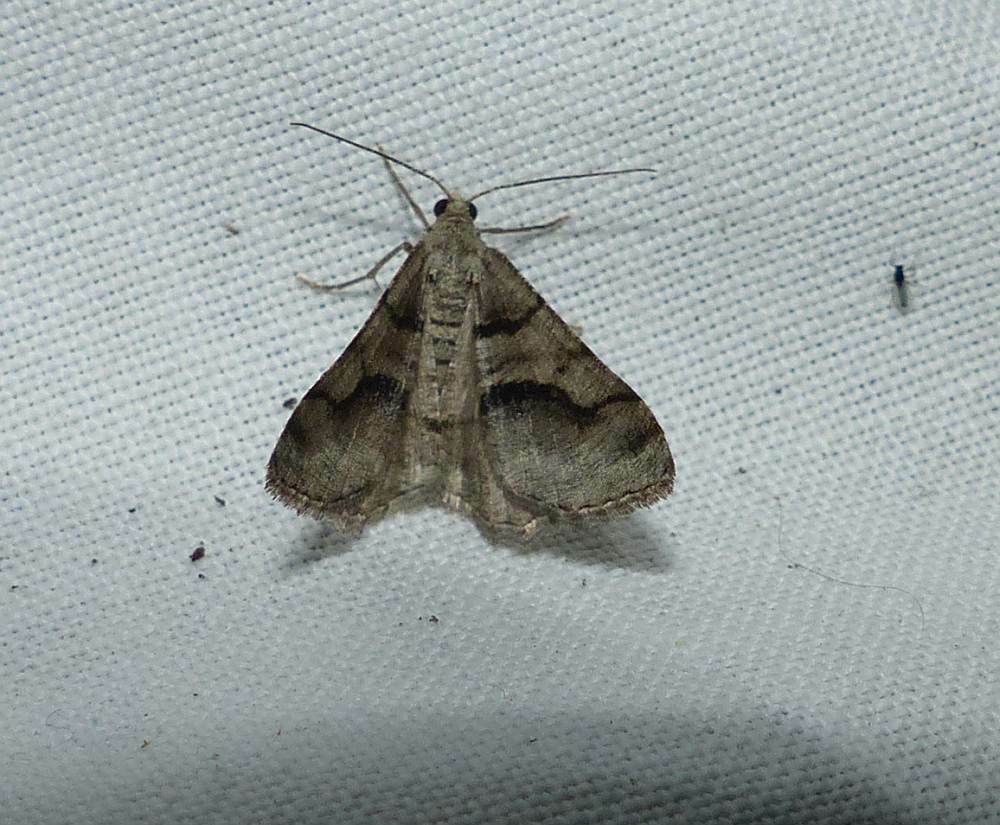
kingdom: Animalia
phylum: Arthropoda
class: Insecta
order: Lepidoptera
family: Geometridae
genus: Digrammia
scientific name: Digrammia continuata
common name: Curve-lined angle
